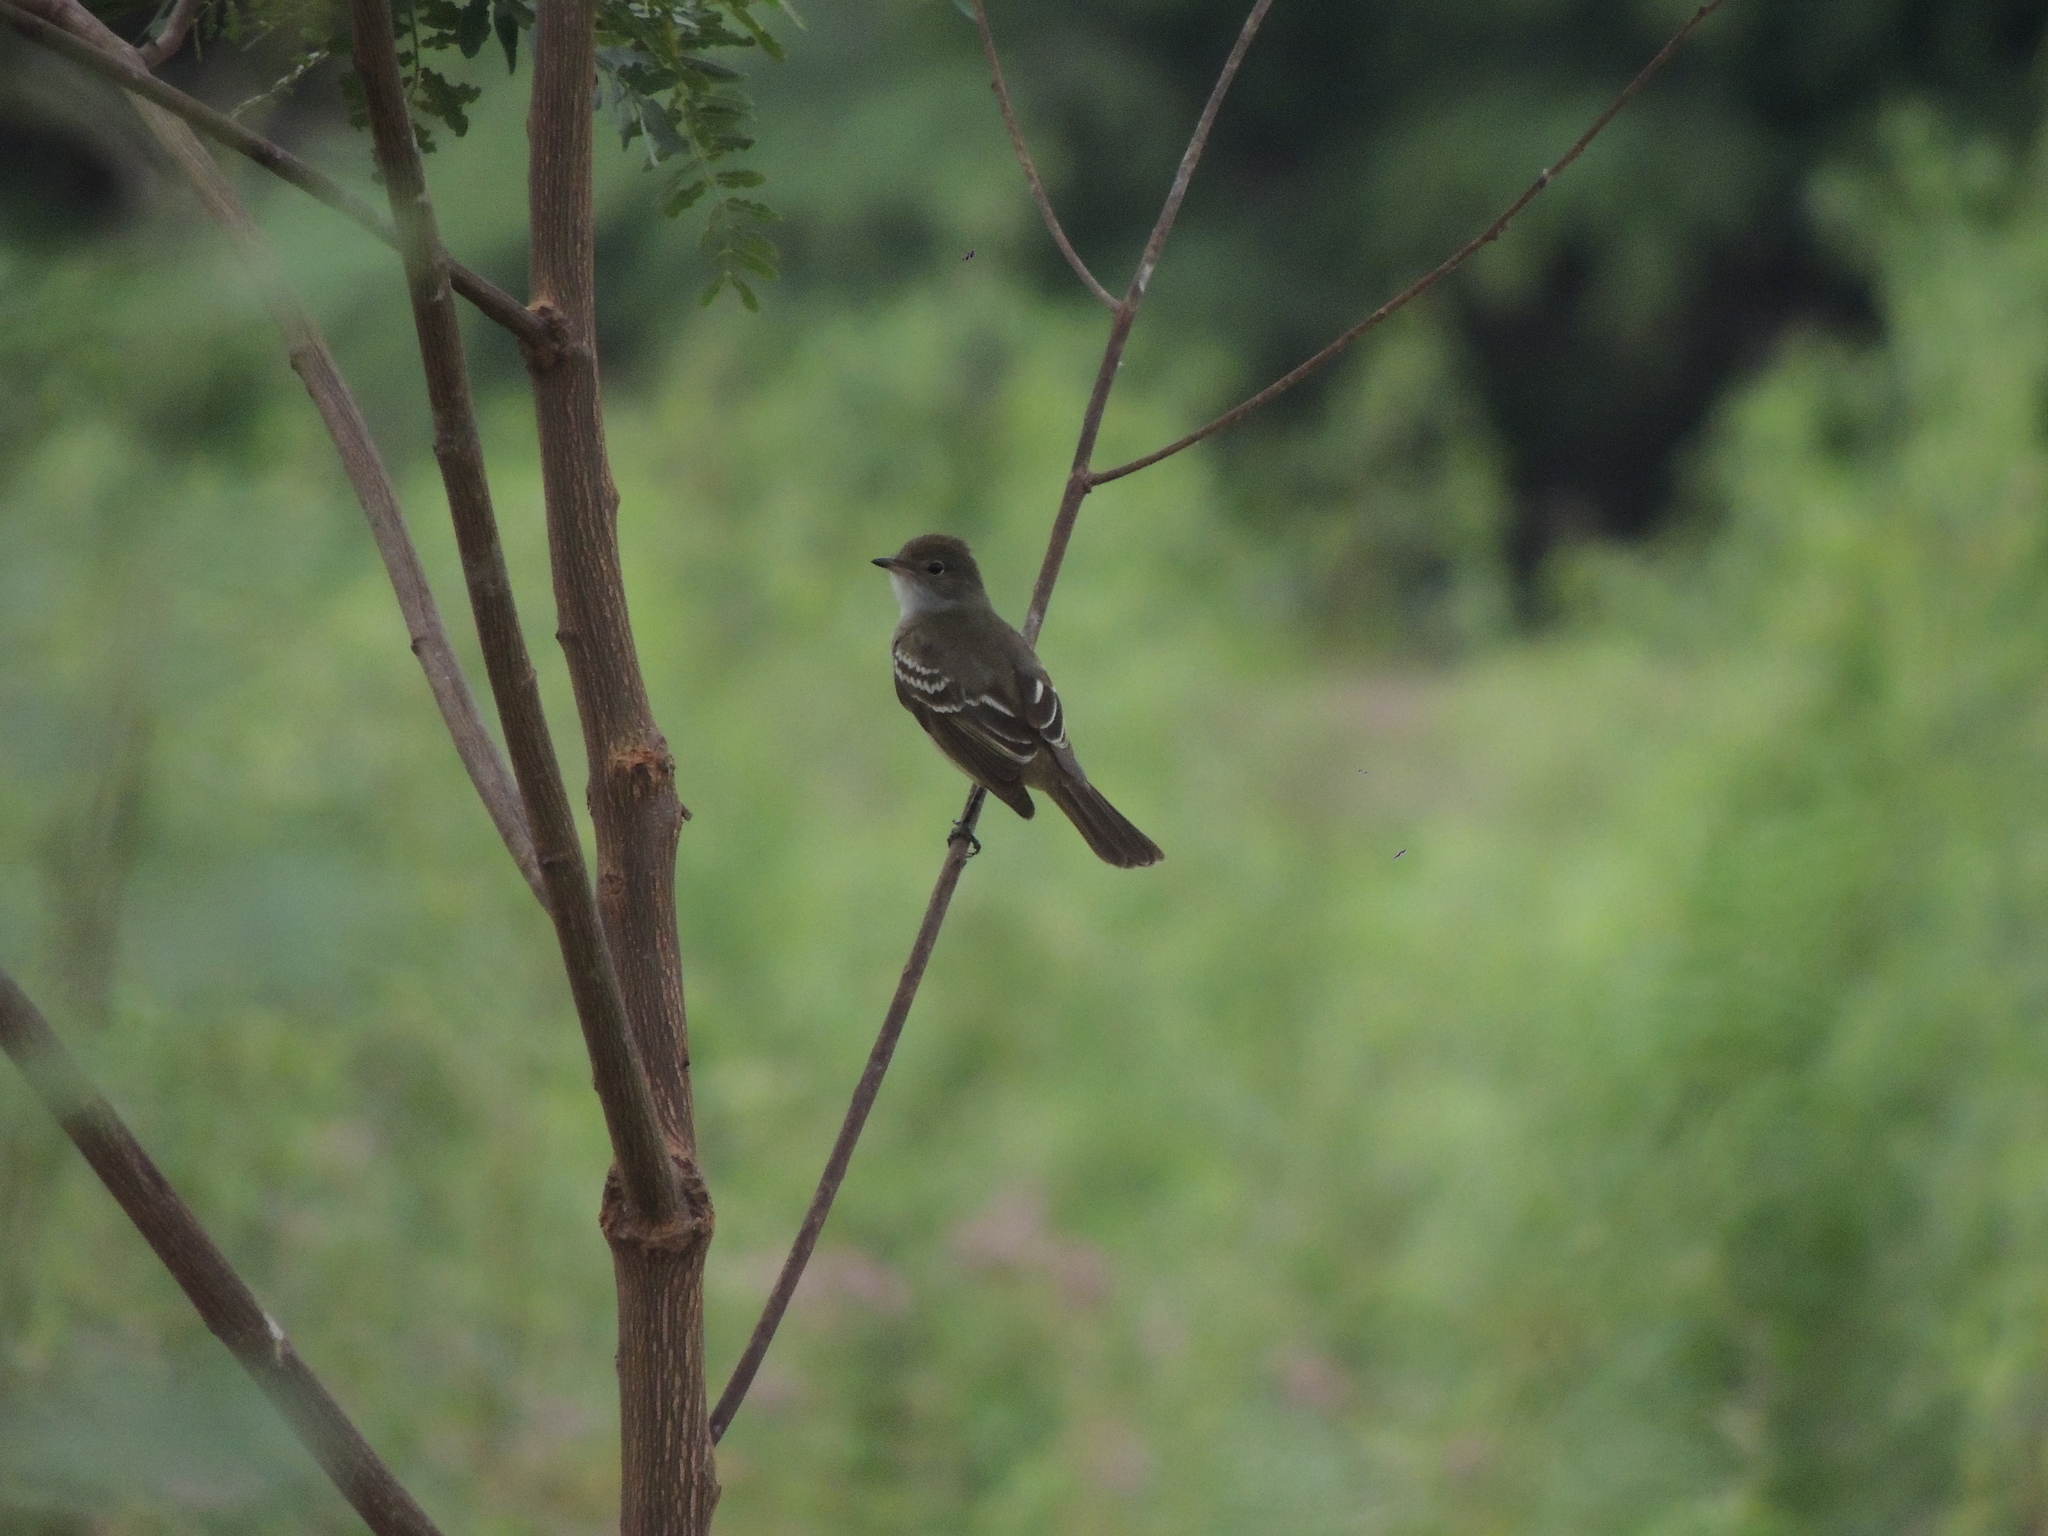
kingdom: Animalia
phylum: Chordata
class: Aves
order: Passeriformes
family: Tyrannidae
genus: Elaenia
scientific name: Elaenia parvirostris
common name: Small-billed elaenia
